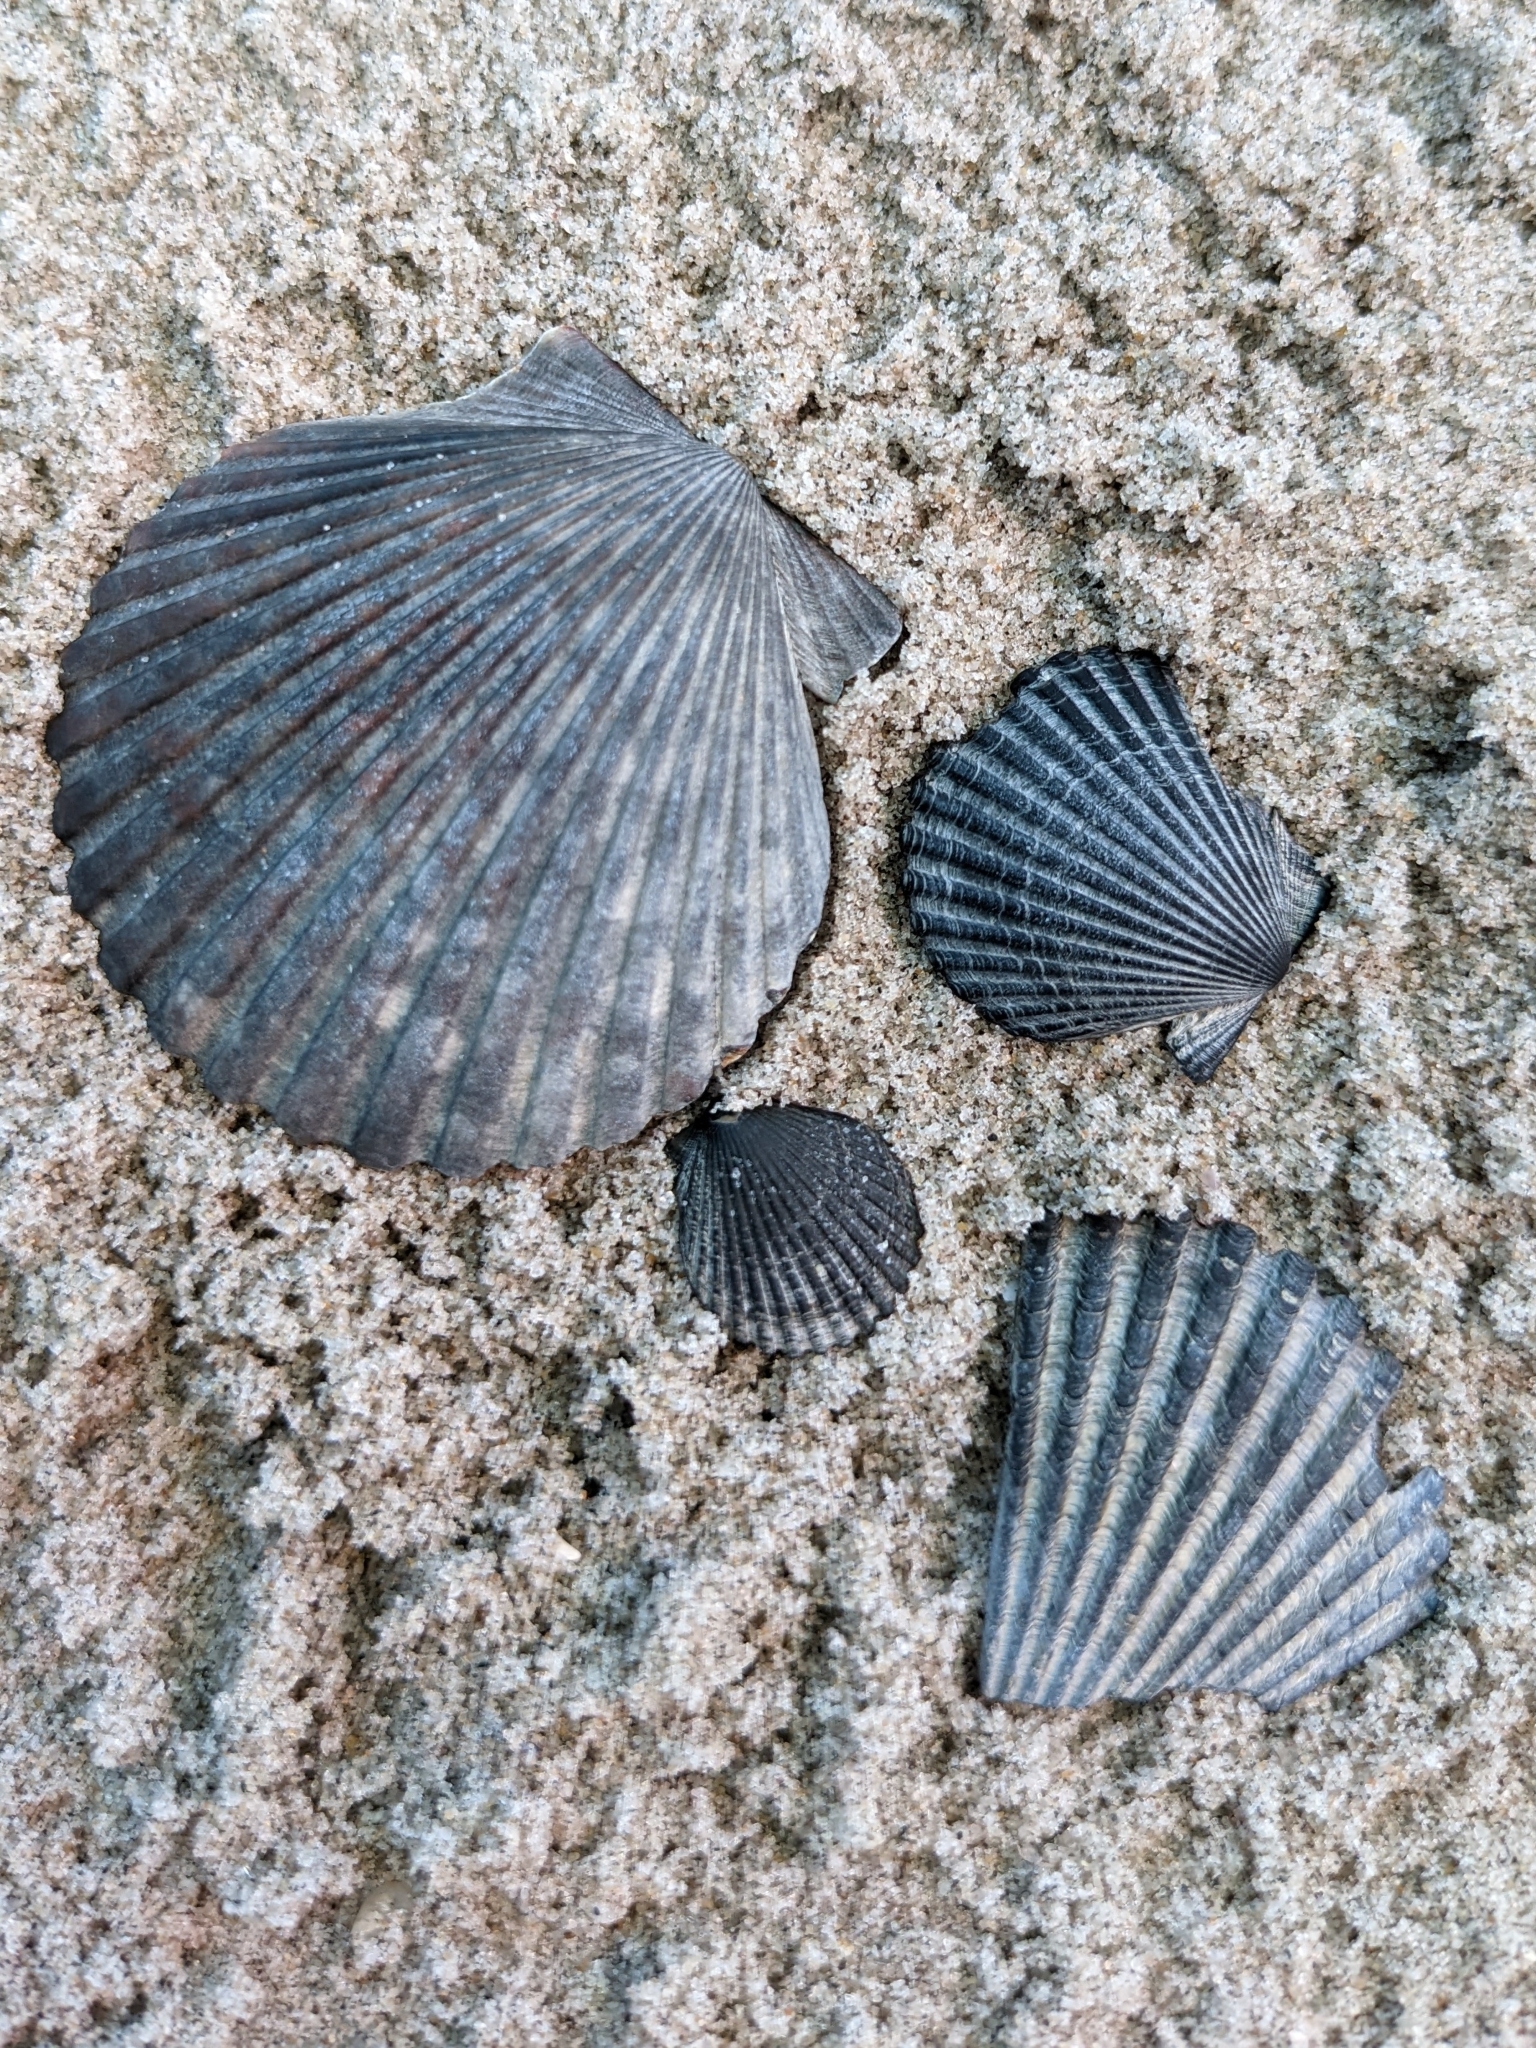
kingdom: Animalia
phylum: Mollusca
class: Bivalvia
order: Pectinida
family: Pectinidae
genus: Argopecten
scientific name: Argopecten irradians
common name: Atlantic bay scallop
